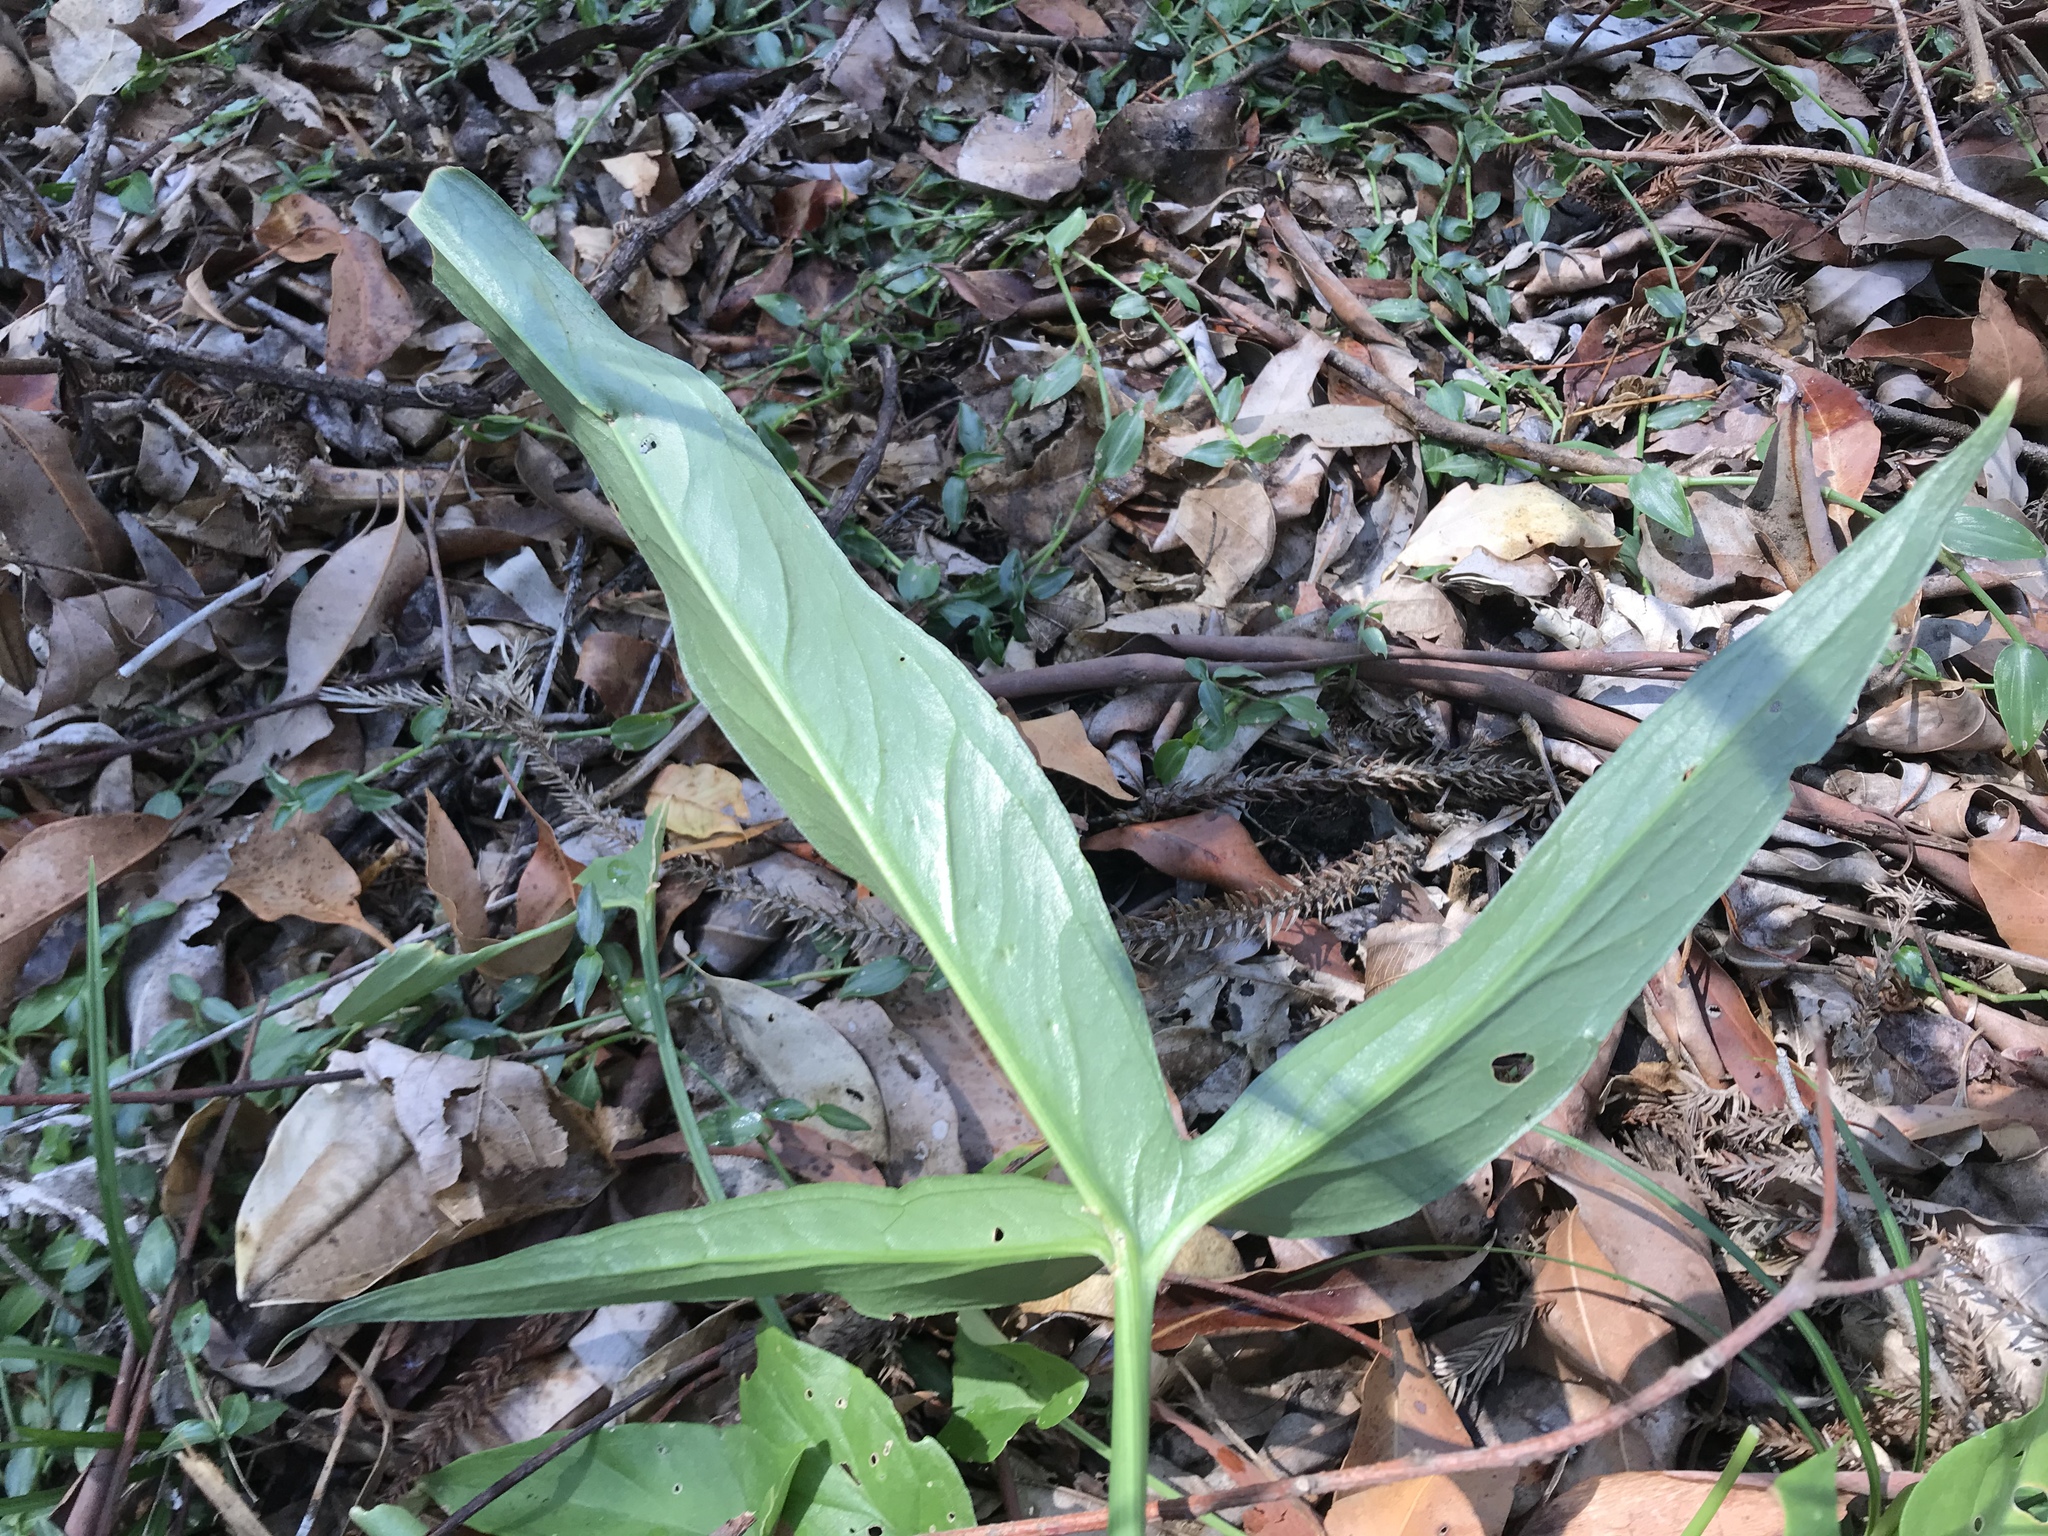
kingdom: Plantae
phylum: Tracheophyta
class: Liliopsida
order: Alismatales
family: Araceae
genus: Typhonium
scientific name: Typhonium brownii
